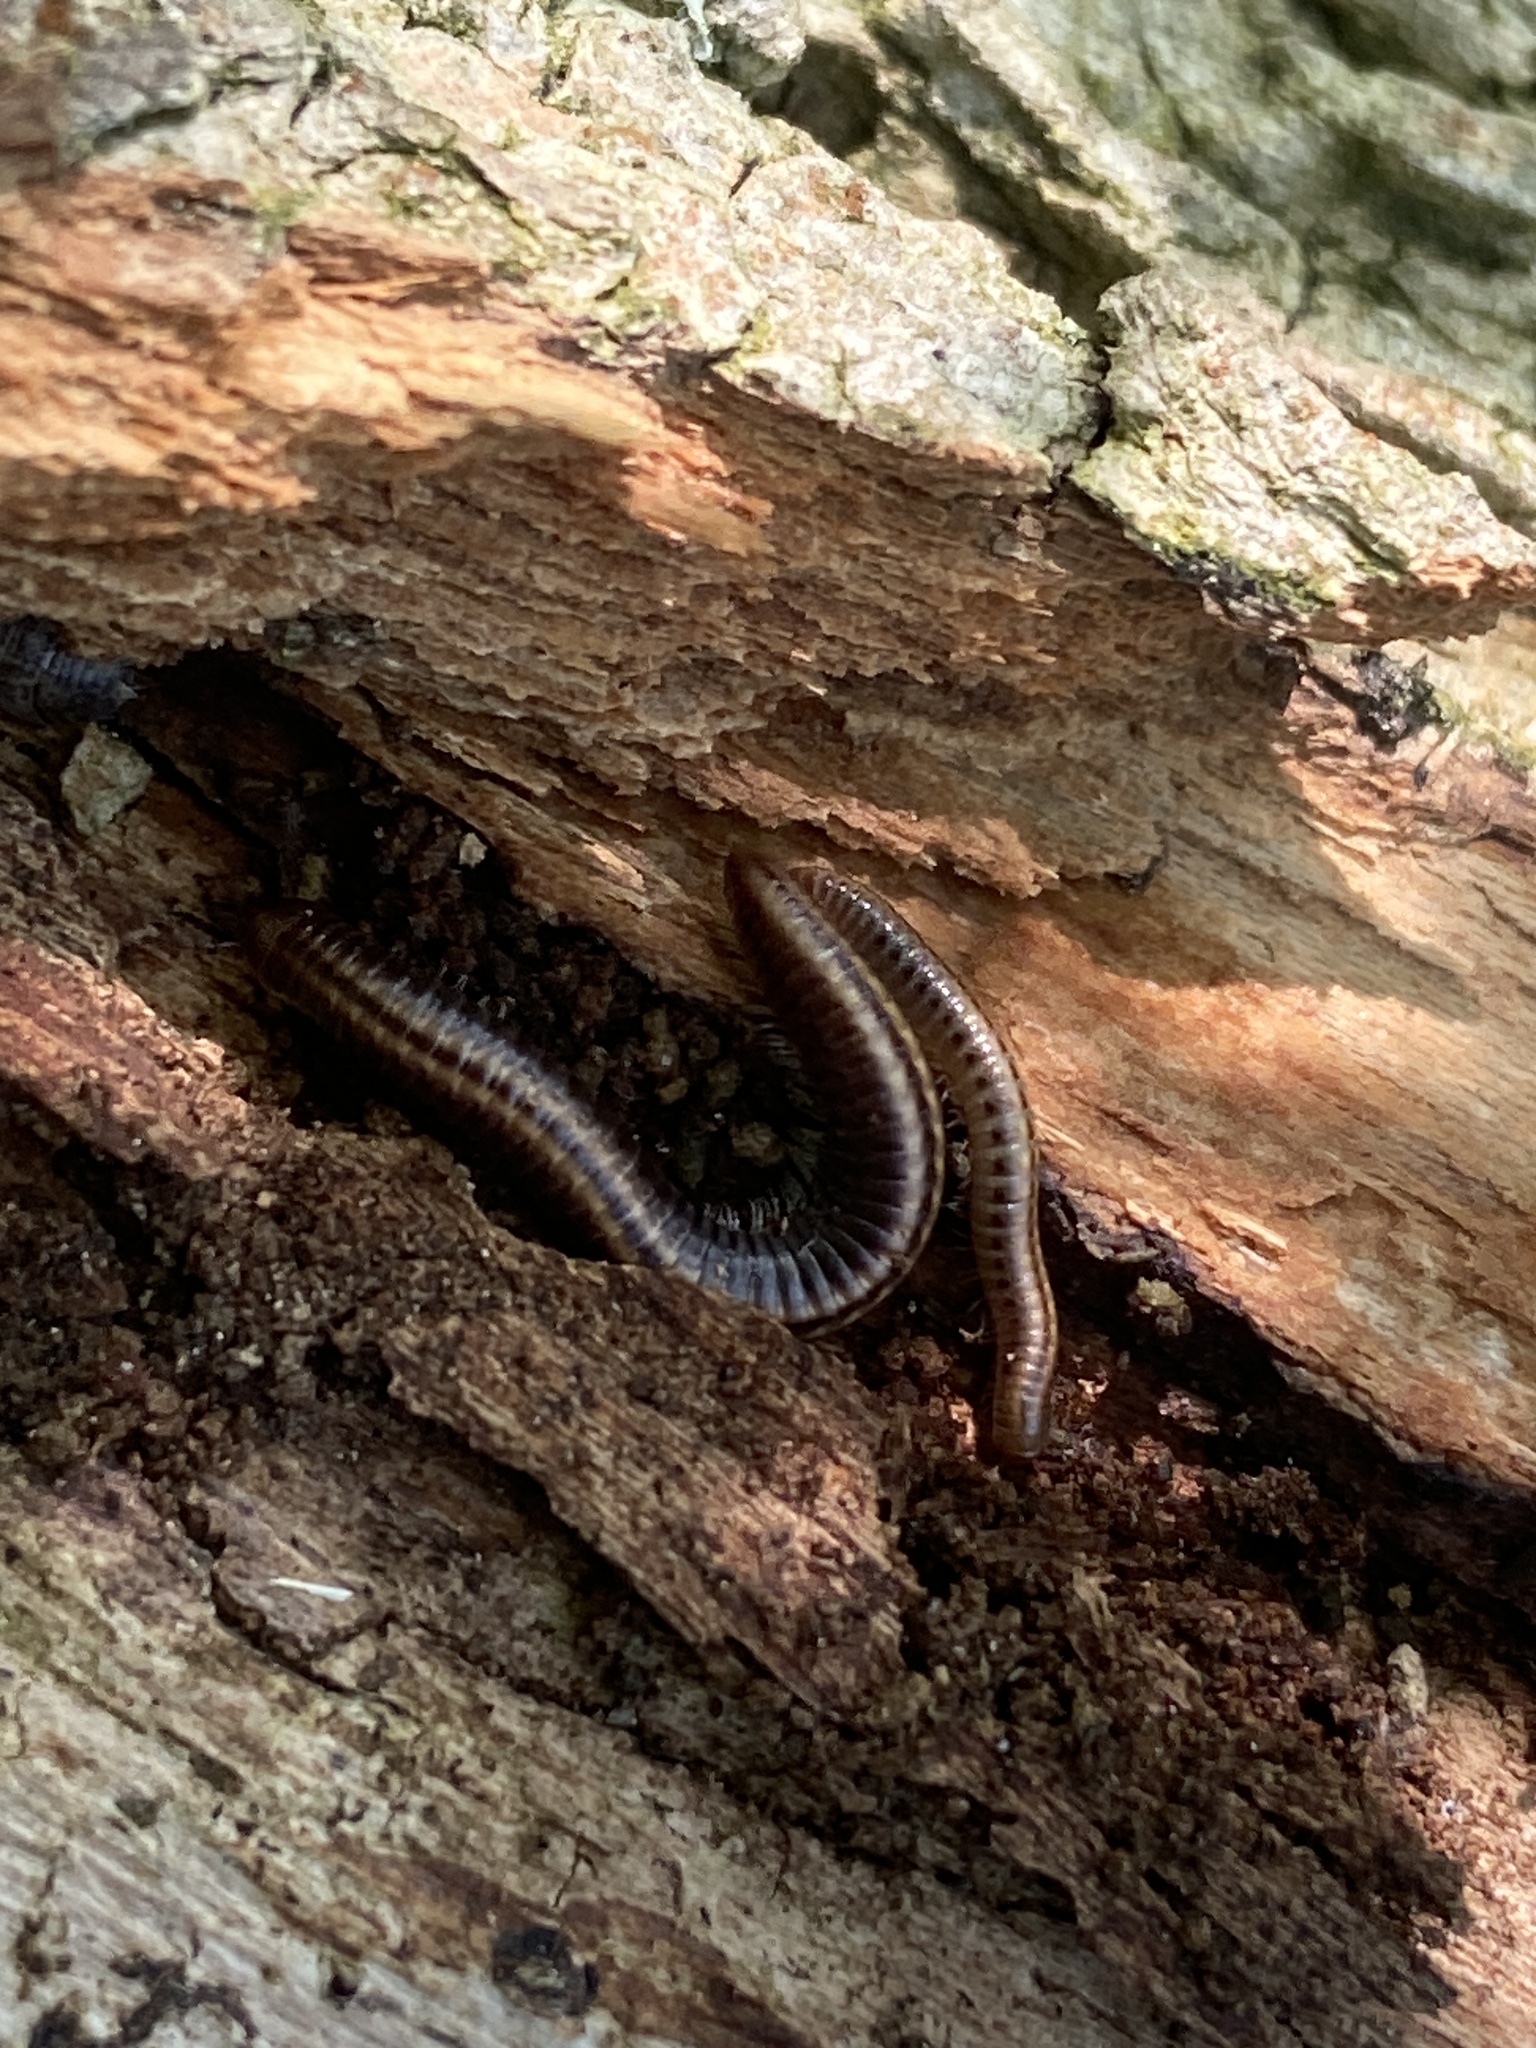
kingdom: Animalia
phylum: Arthropoda
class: Diplopoda
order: Julida
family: Julidae
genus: Ommatoiulus
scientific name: Ommatoiulus sabulosus
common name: Striped millipede
